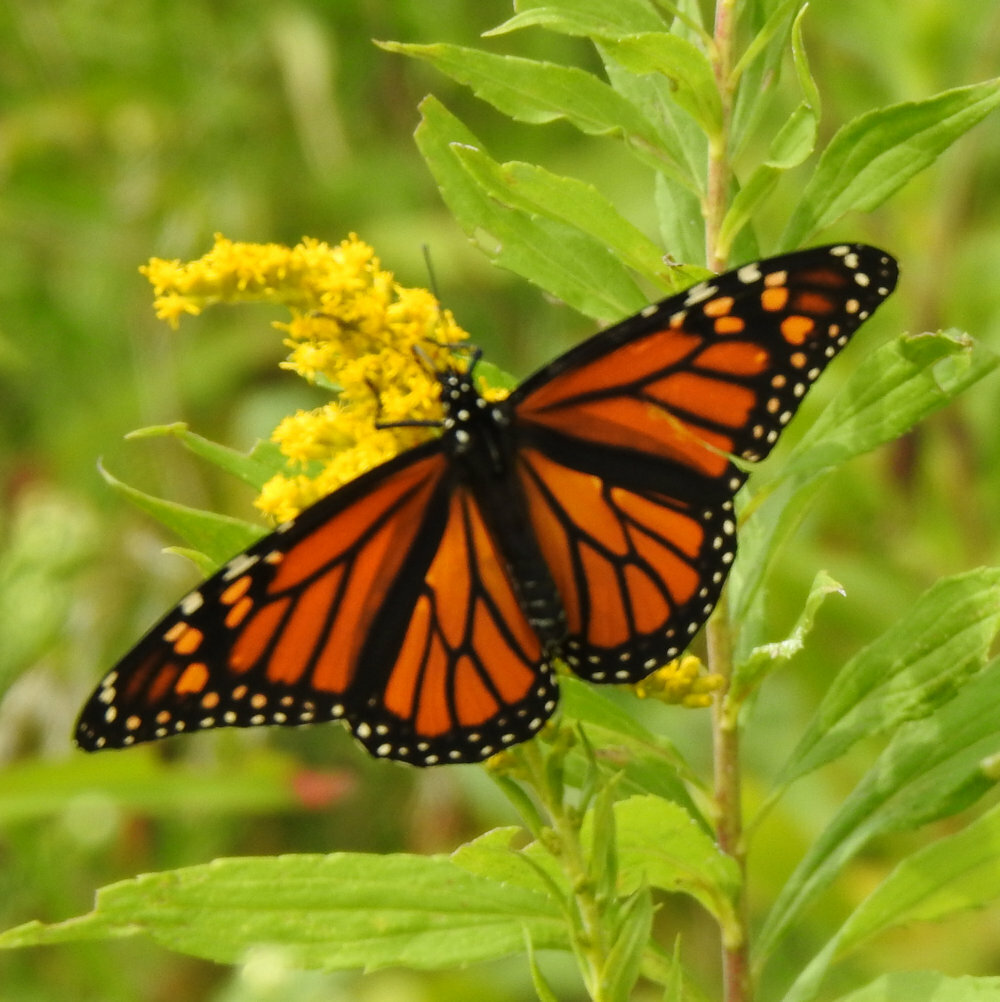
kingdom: Animalia
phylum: Arthropoda
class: Insecta
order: Lepidoptera
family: Nymphalidae
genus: Danaus
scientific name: Danaus plexippus
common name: Monarch
